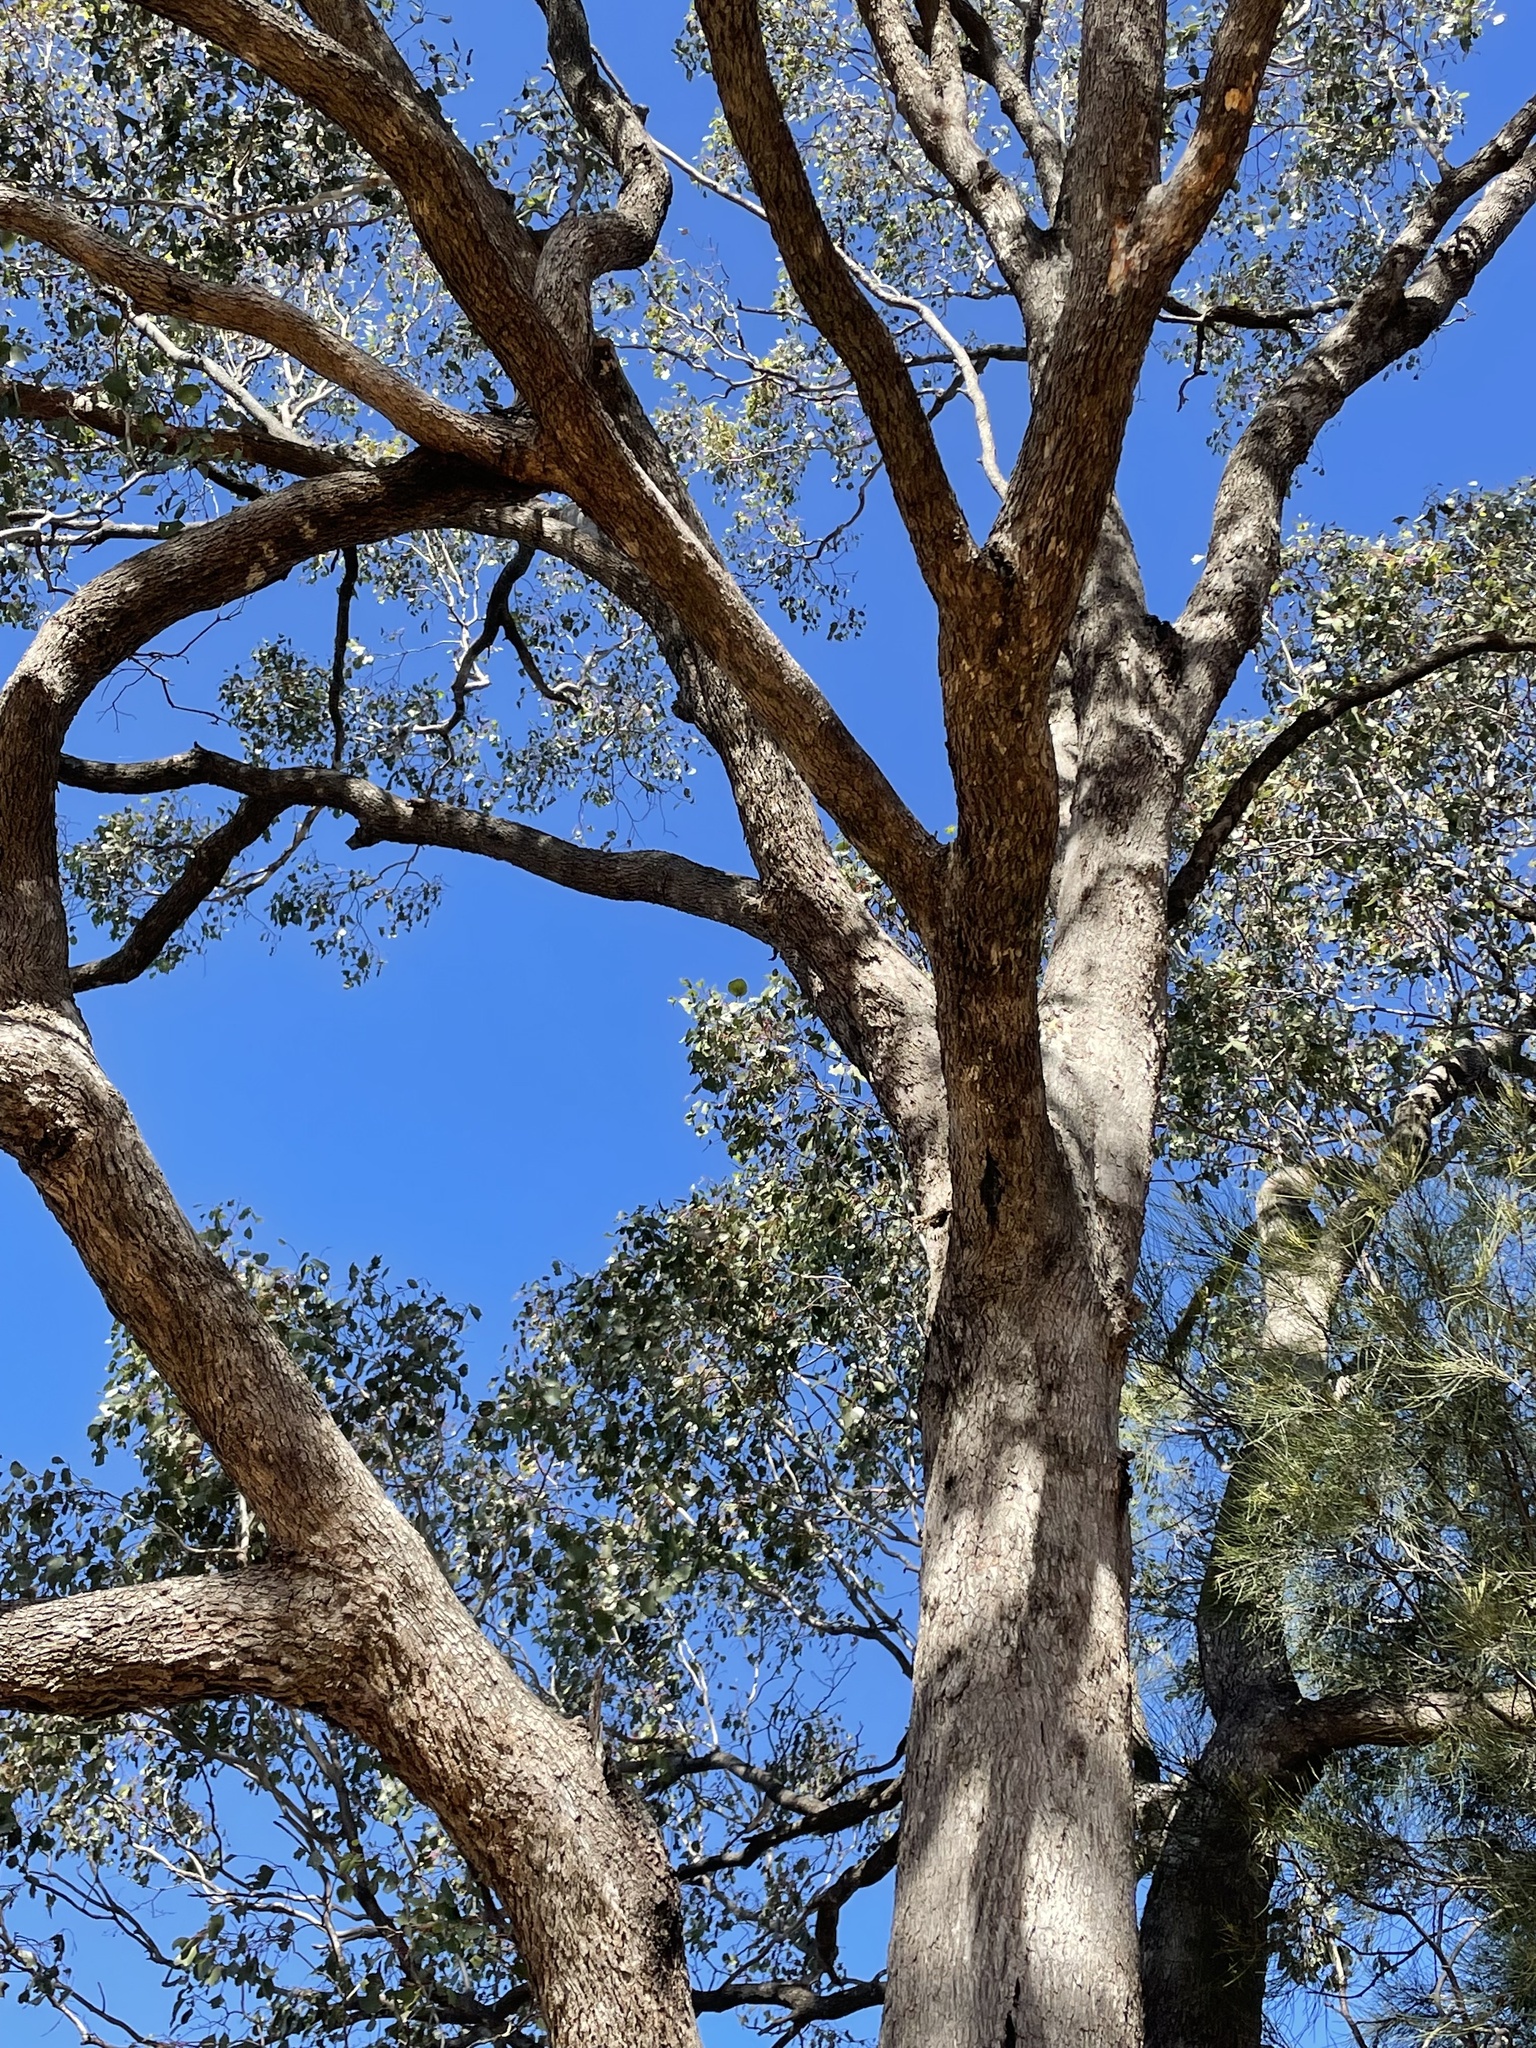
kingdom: Plantae
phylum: Tracheophyta
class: Magnoliopsida
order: Myrtales
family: Myrtaceae
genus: Eucalyptus
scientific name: Eucalyptus populnea
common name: Bimble box
